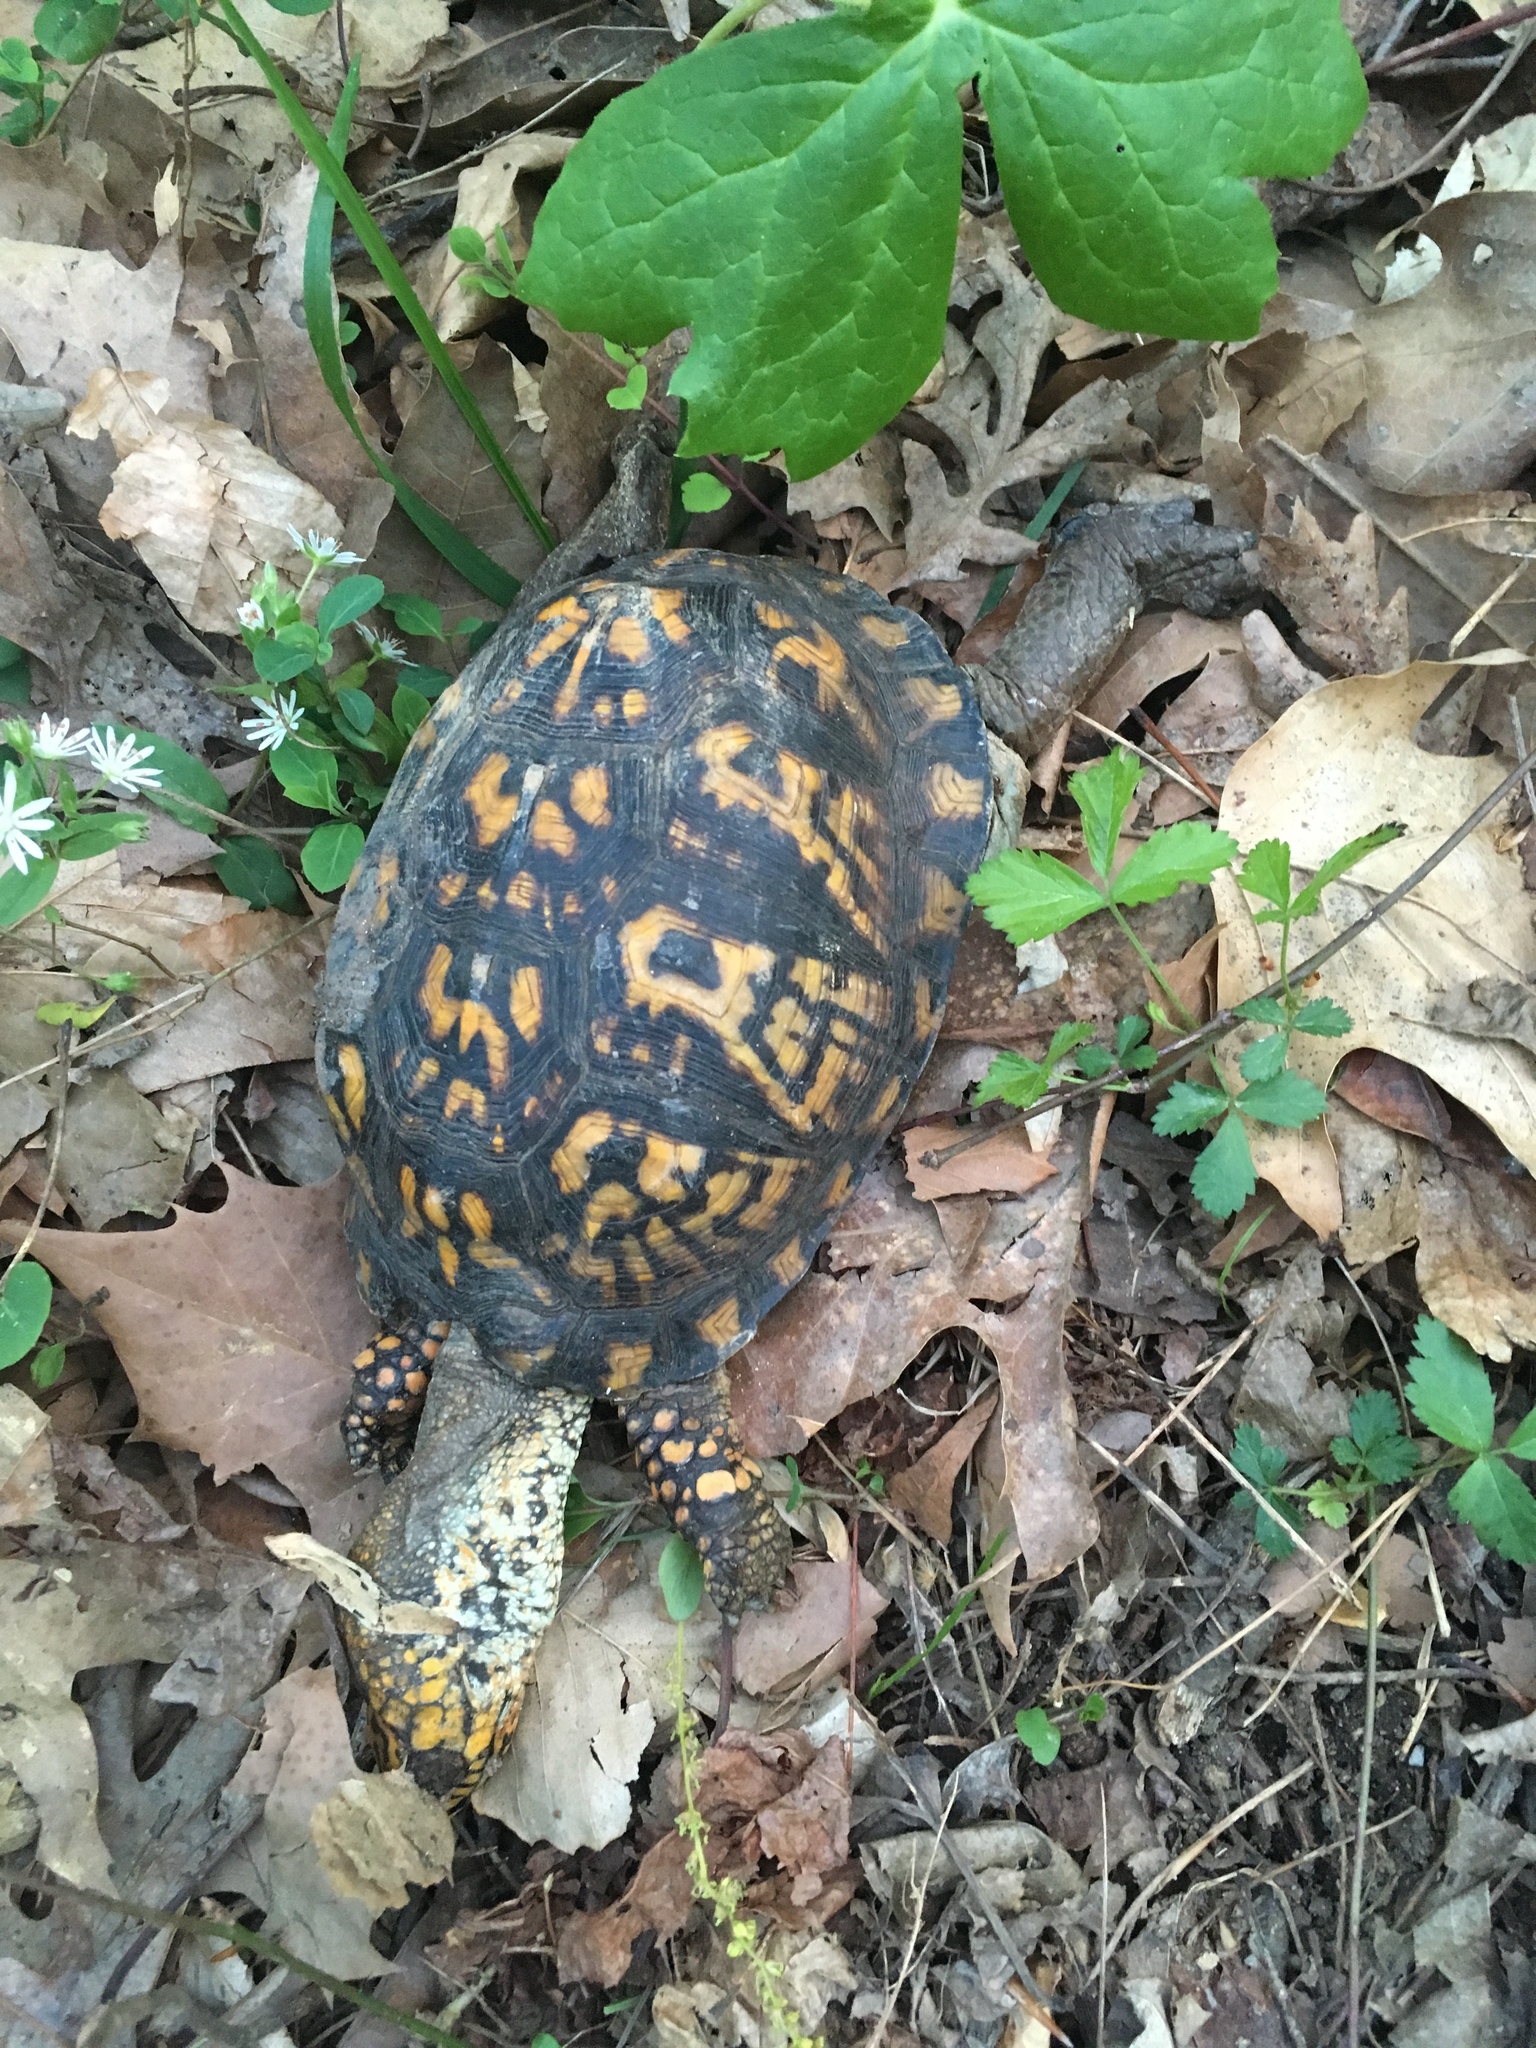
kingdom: Animalia
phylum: Chordata
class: Testudines
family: Emydidae
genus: Terrapene
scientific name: Terrapene carolina
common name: Common box turtle
